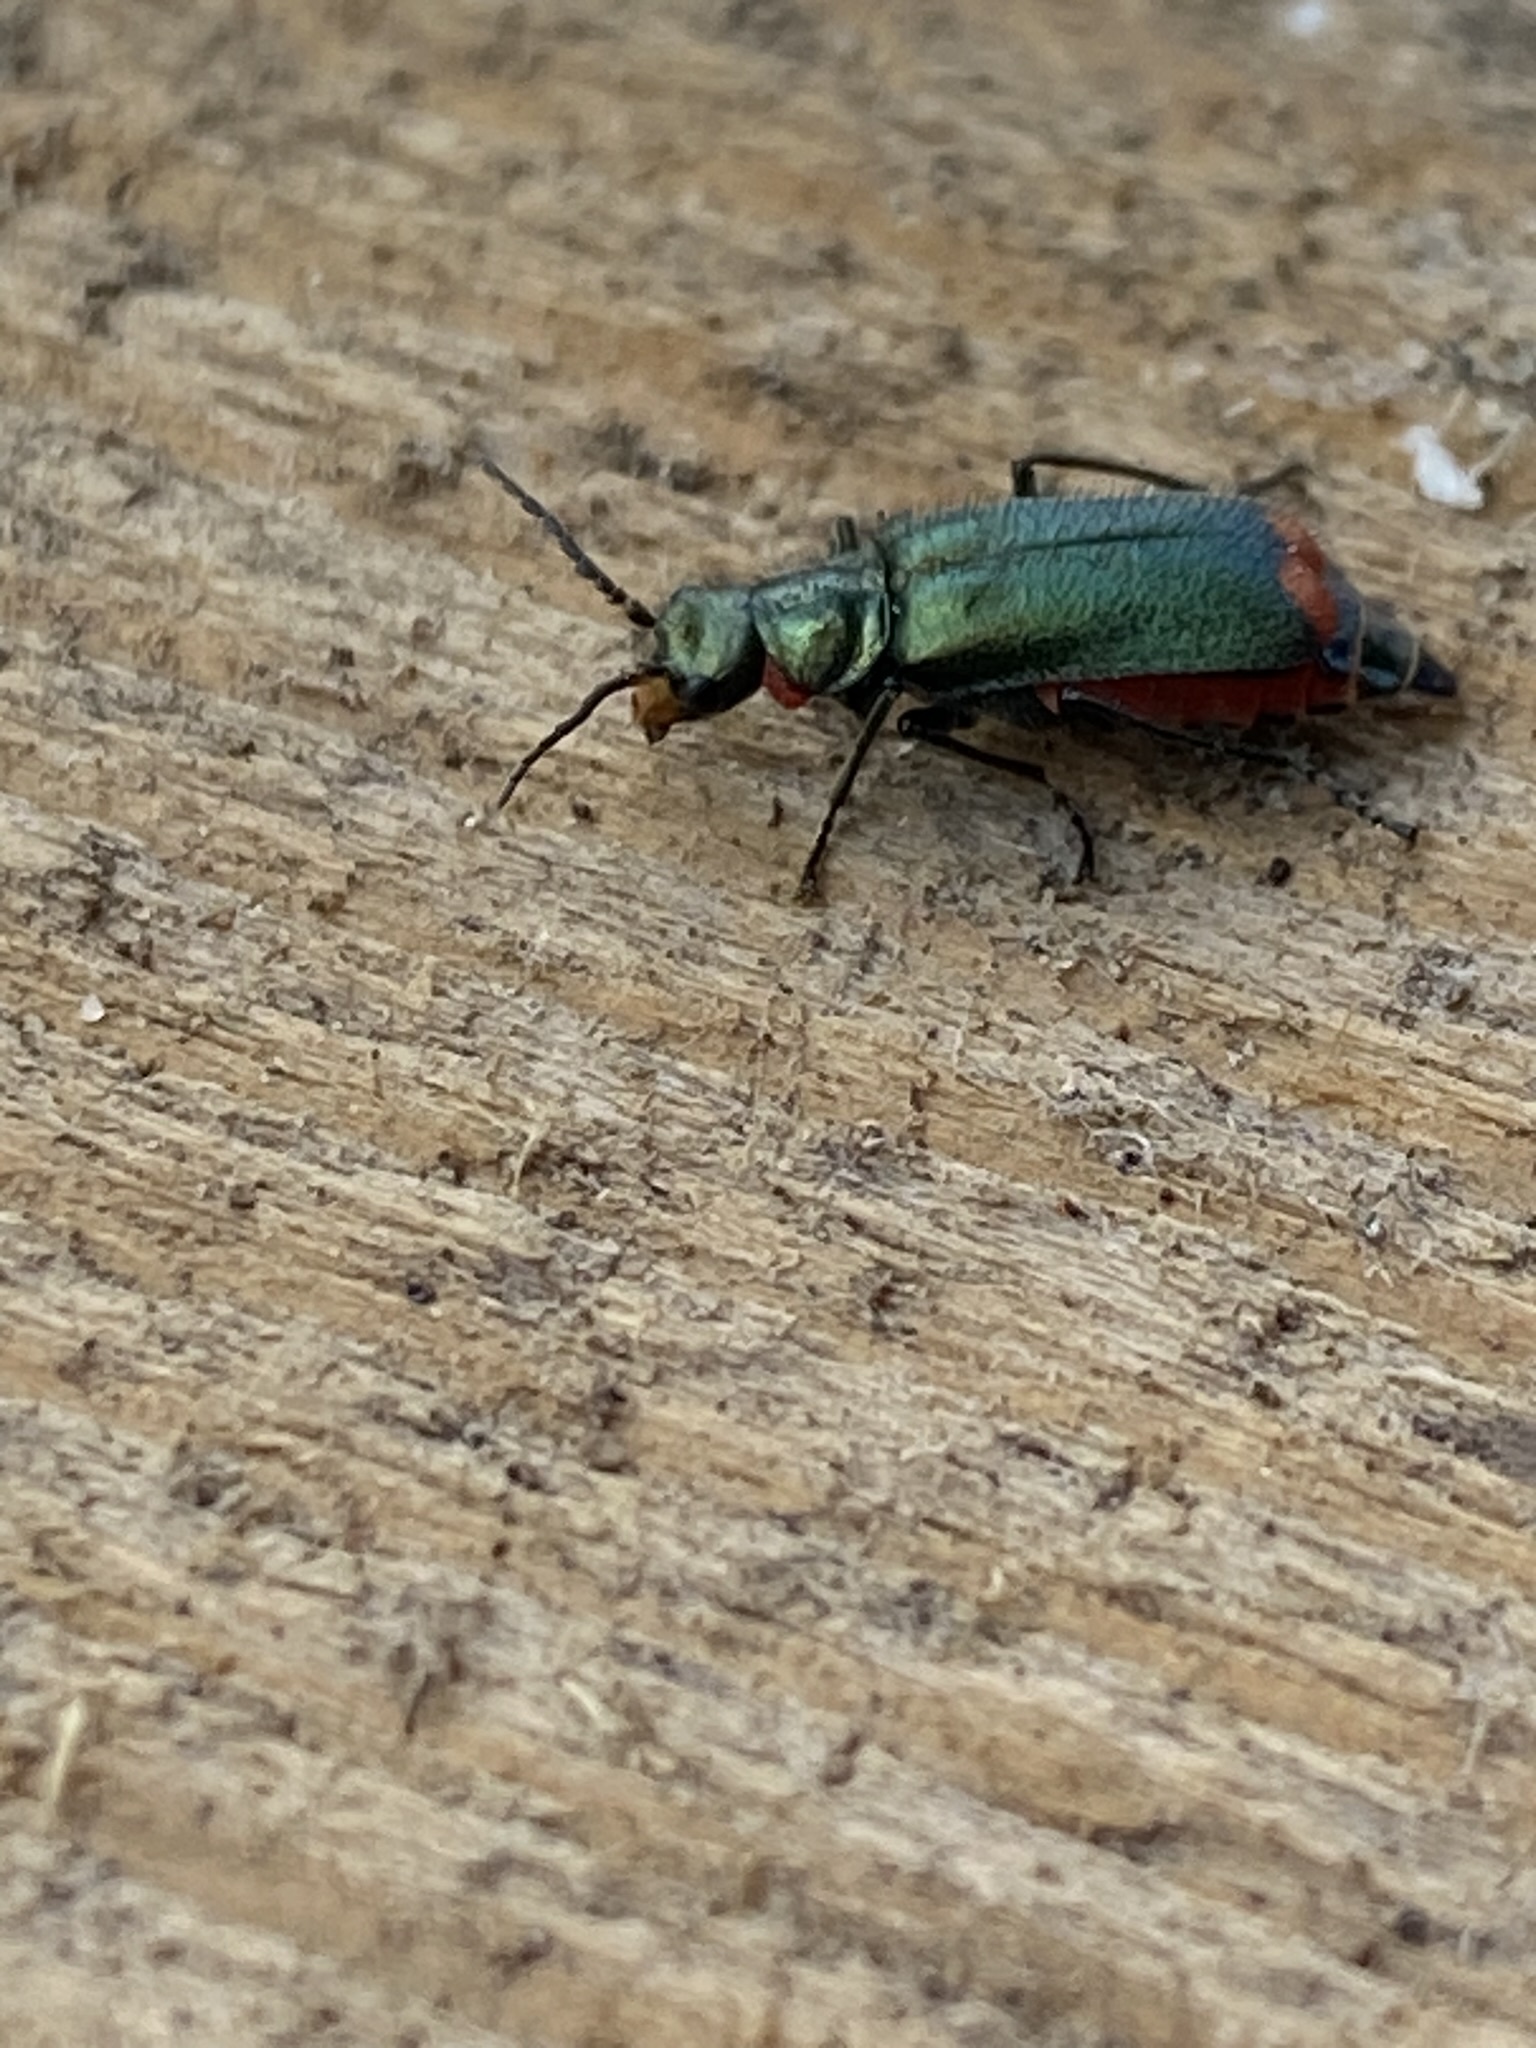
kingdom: Animalia
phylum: Arthropoda
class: Insecta
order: Coleoptera
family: Melyridae
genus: Malachius
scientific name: Malachius bipustulatus
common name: Malachite beetle
